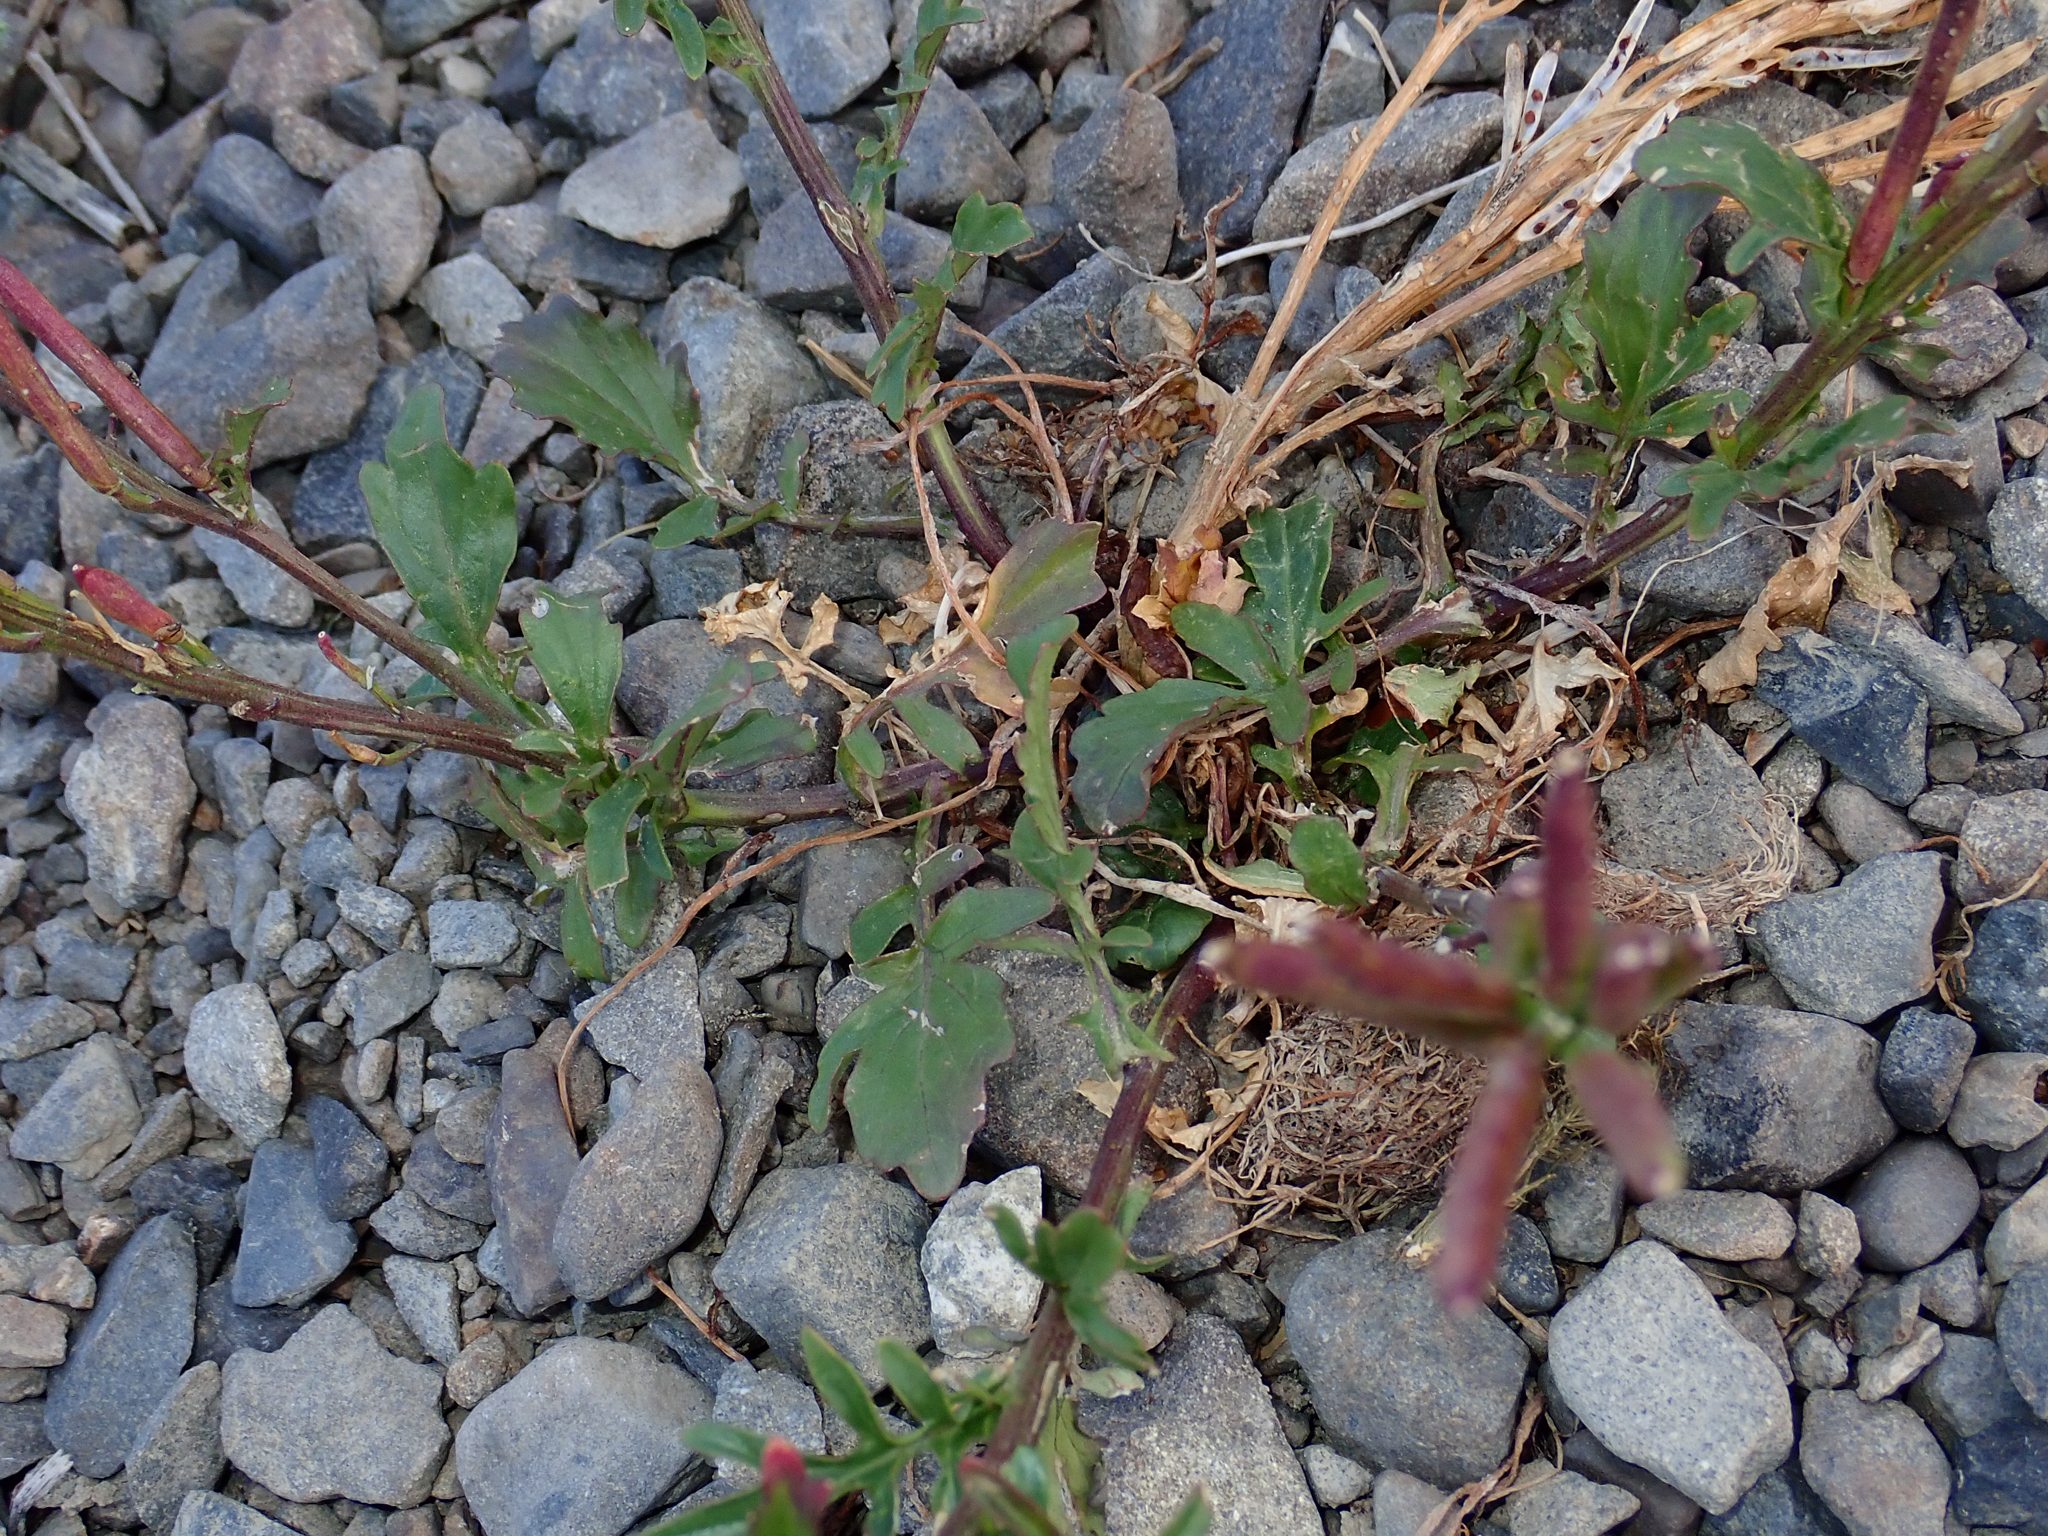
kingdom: Plantae
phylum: Tracheophyta
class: Magnoliopsida
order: Brassicales
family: Brassicaceae
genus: Barbarea
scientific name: Barbarea intermedia
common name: Medium-flowered winter-cress
